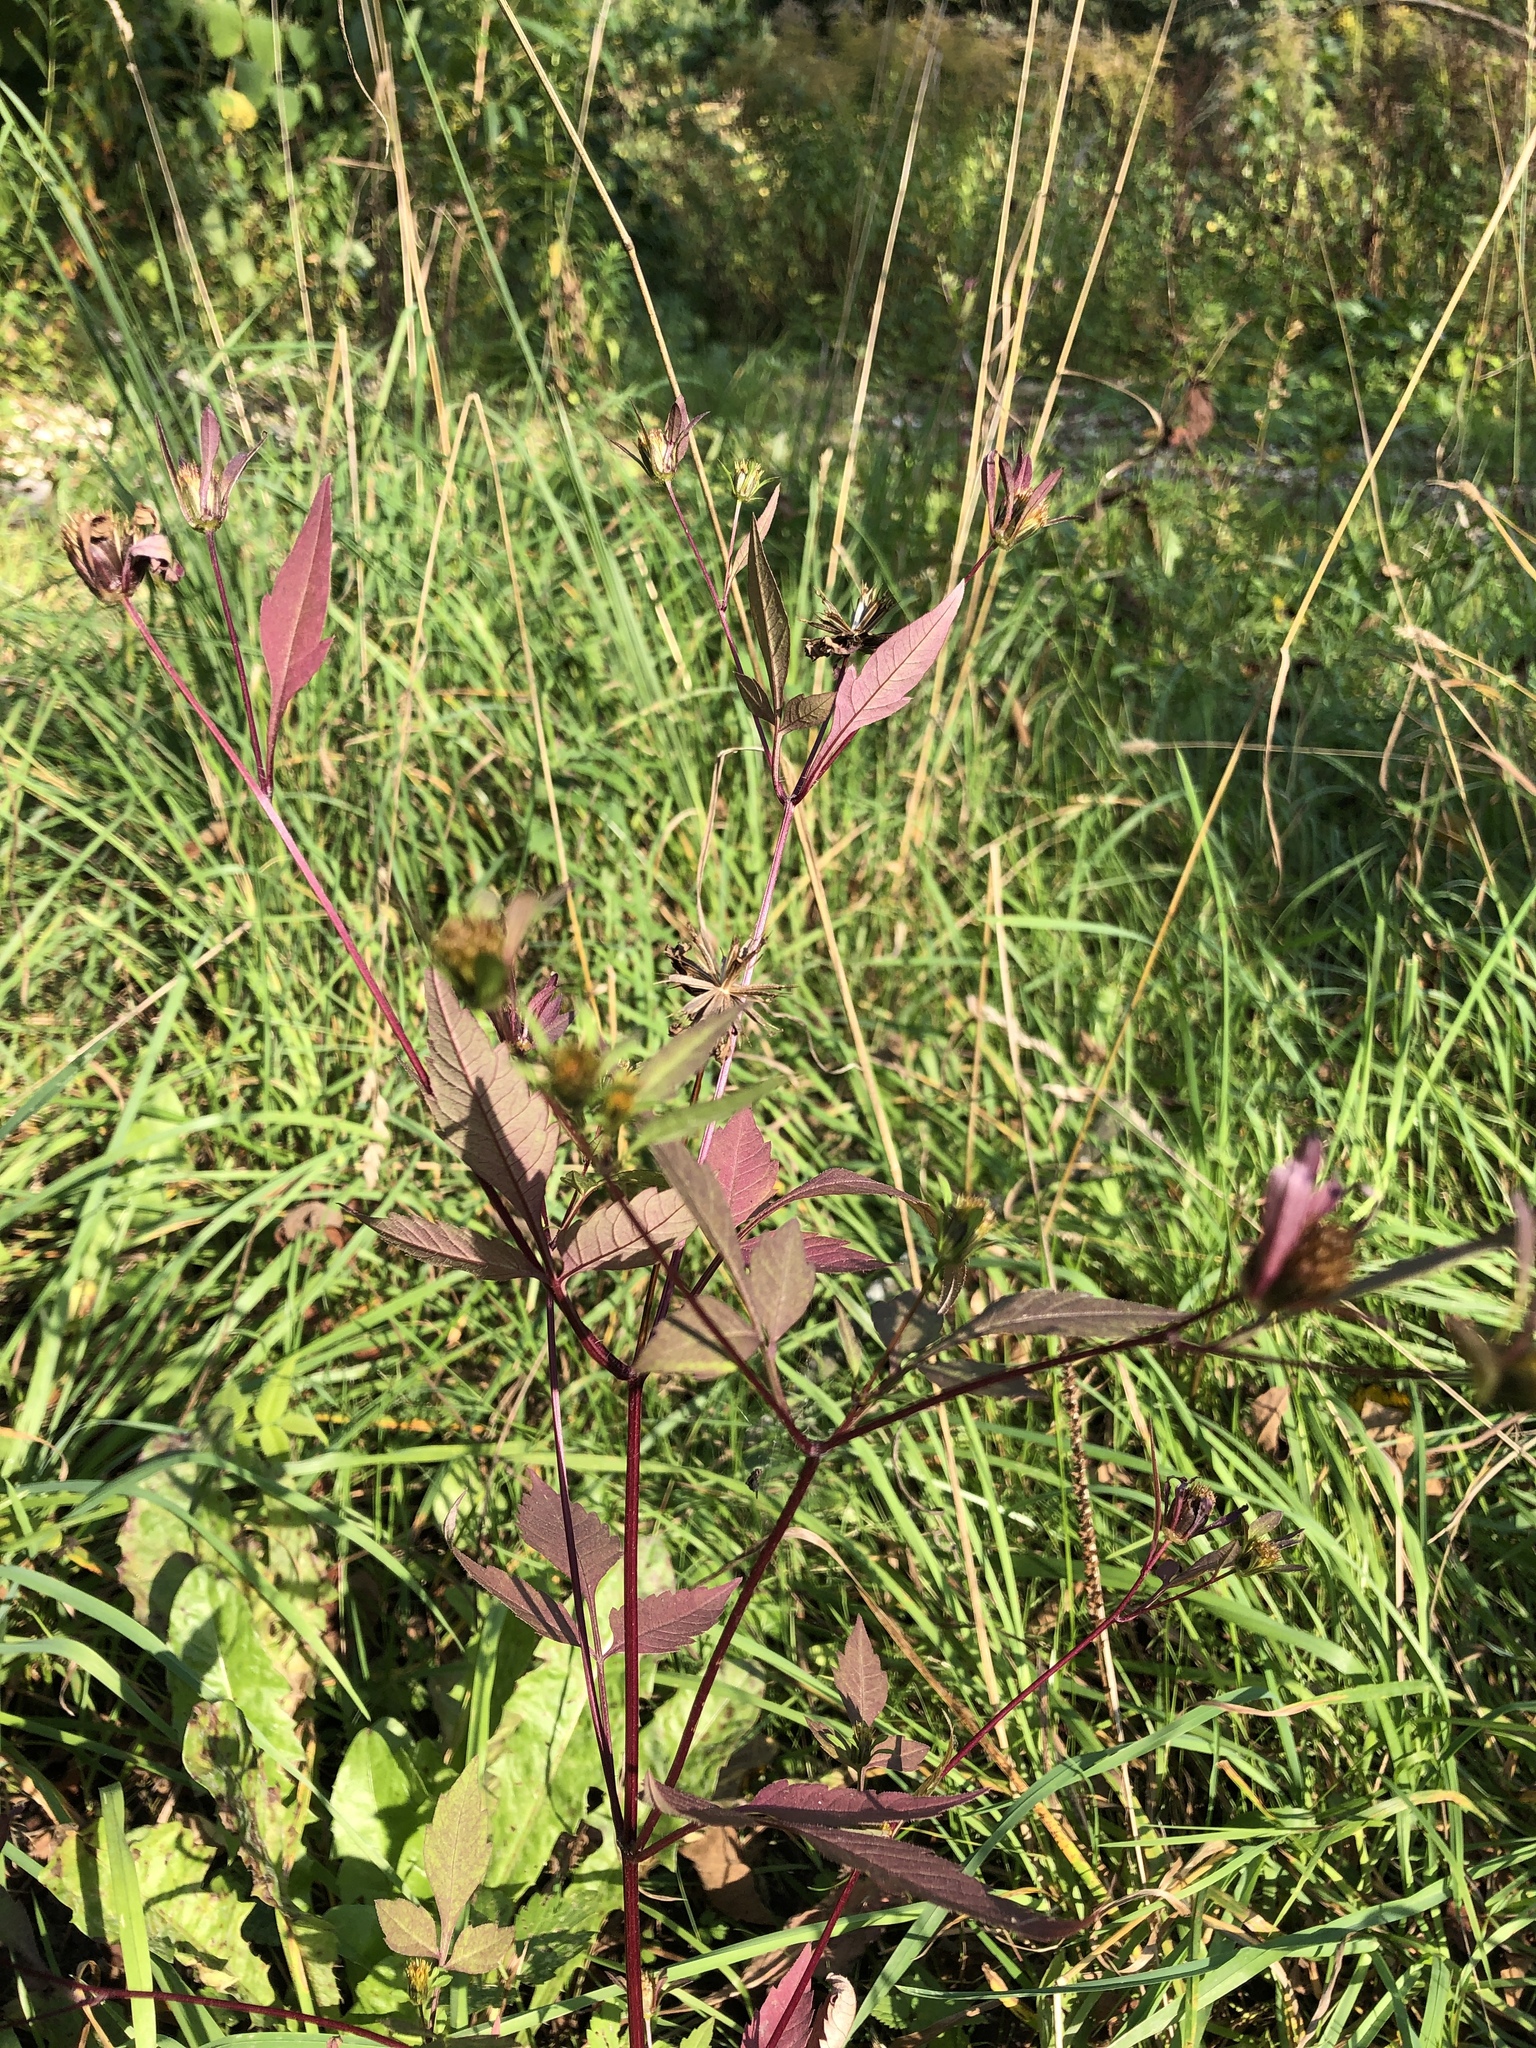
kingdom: Plantae
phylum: Tracheophyta
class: Magnoliopsida
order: Asterales
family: Asteraceae
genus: Bidens
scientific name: Bidens frondosa
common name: Beggarticks
